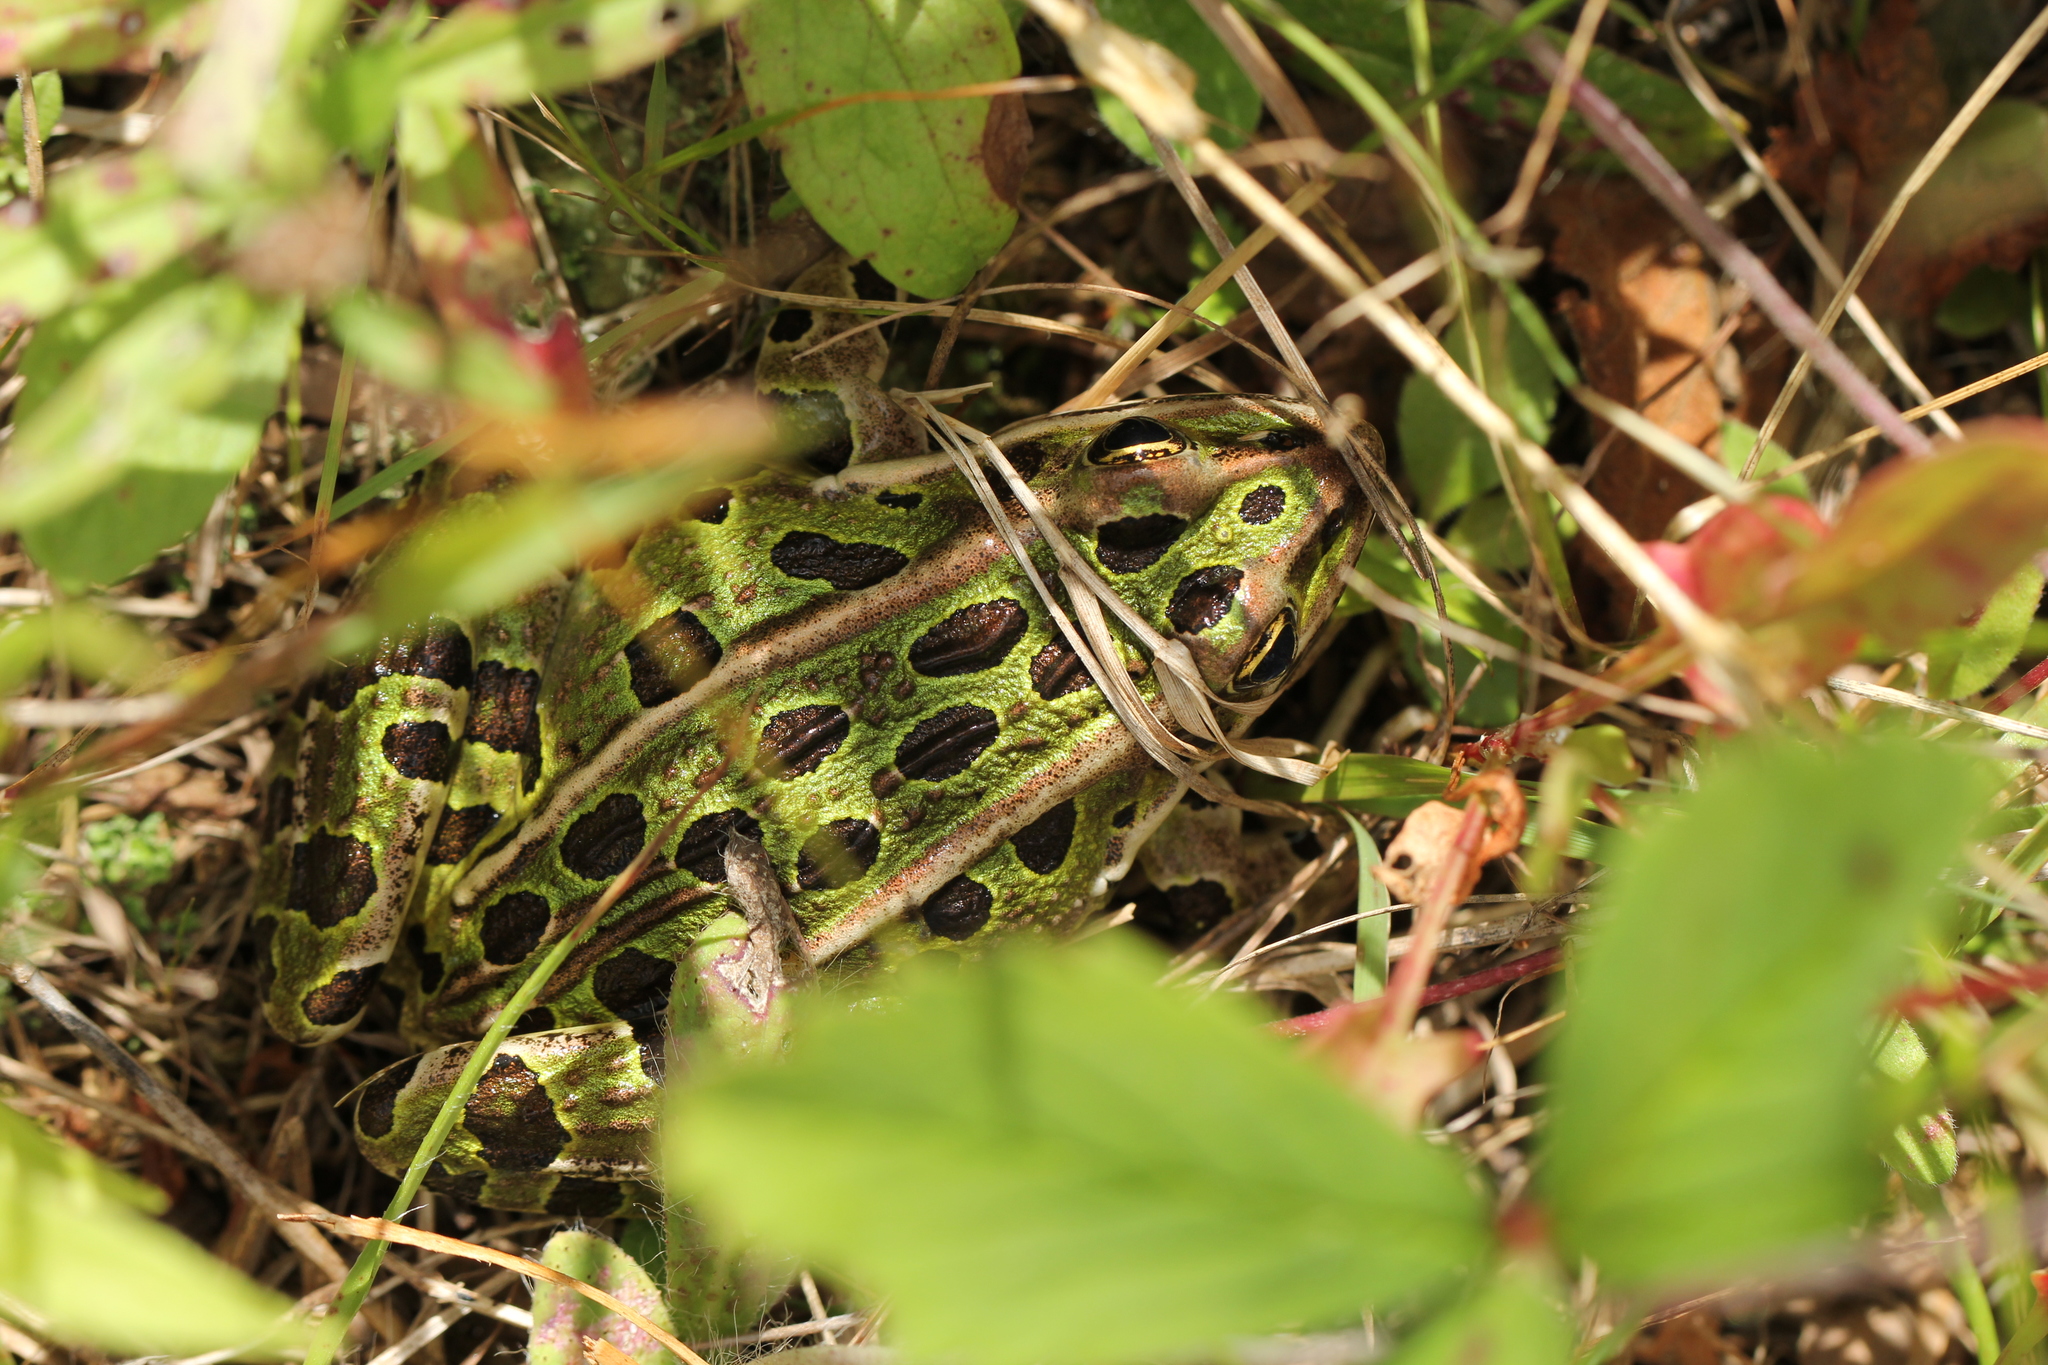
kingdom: Animalia
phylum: Chordata
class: Amphibia
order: Anura
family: Ranidae
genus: Lithobates
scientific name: Lithobates pipiens
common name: Northern leopard frog
